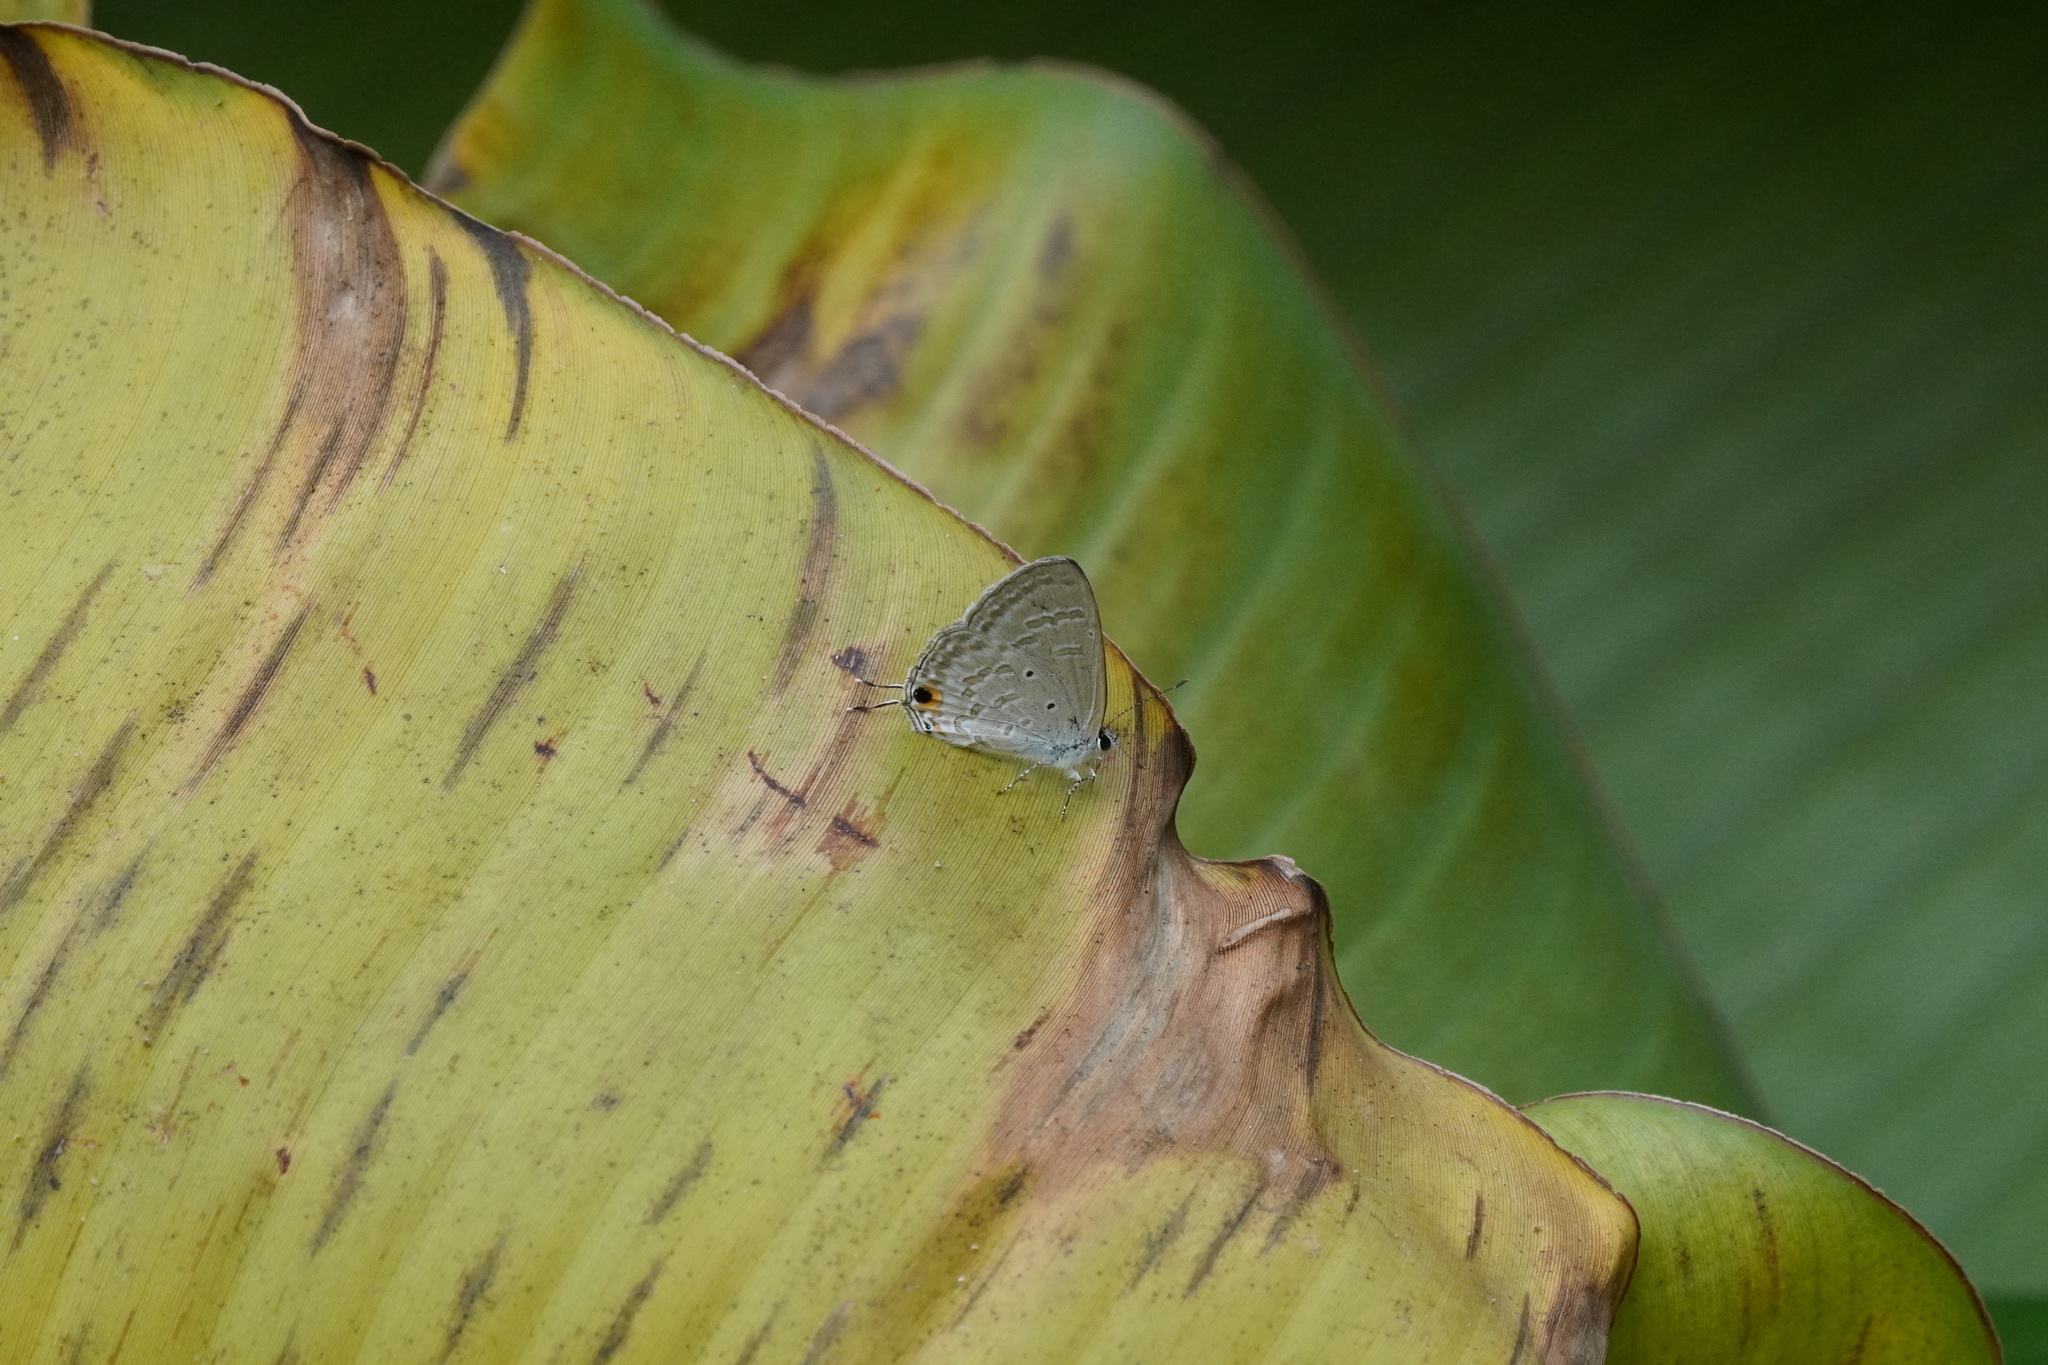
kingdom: Animalia
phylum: Arthropoda
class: Insecta
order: Lepidoptera
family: Lycaenidae
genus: Catochrysops
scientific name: Catochrysops strabo
